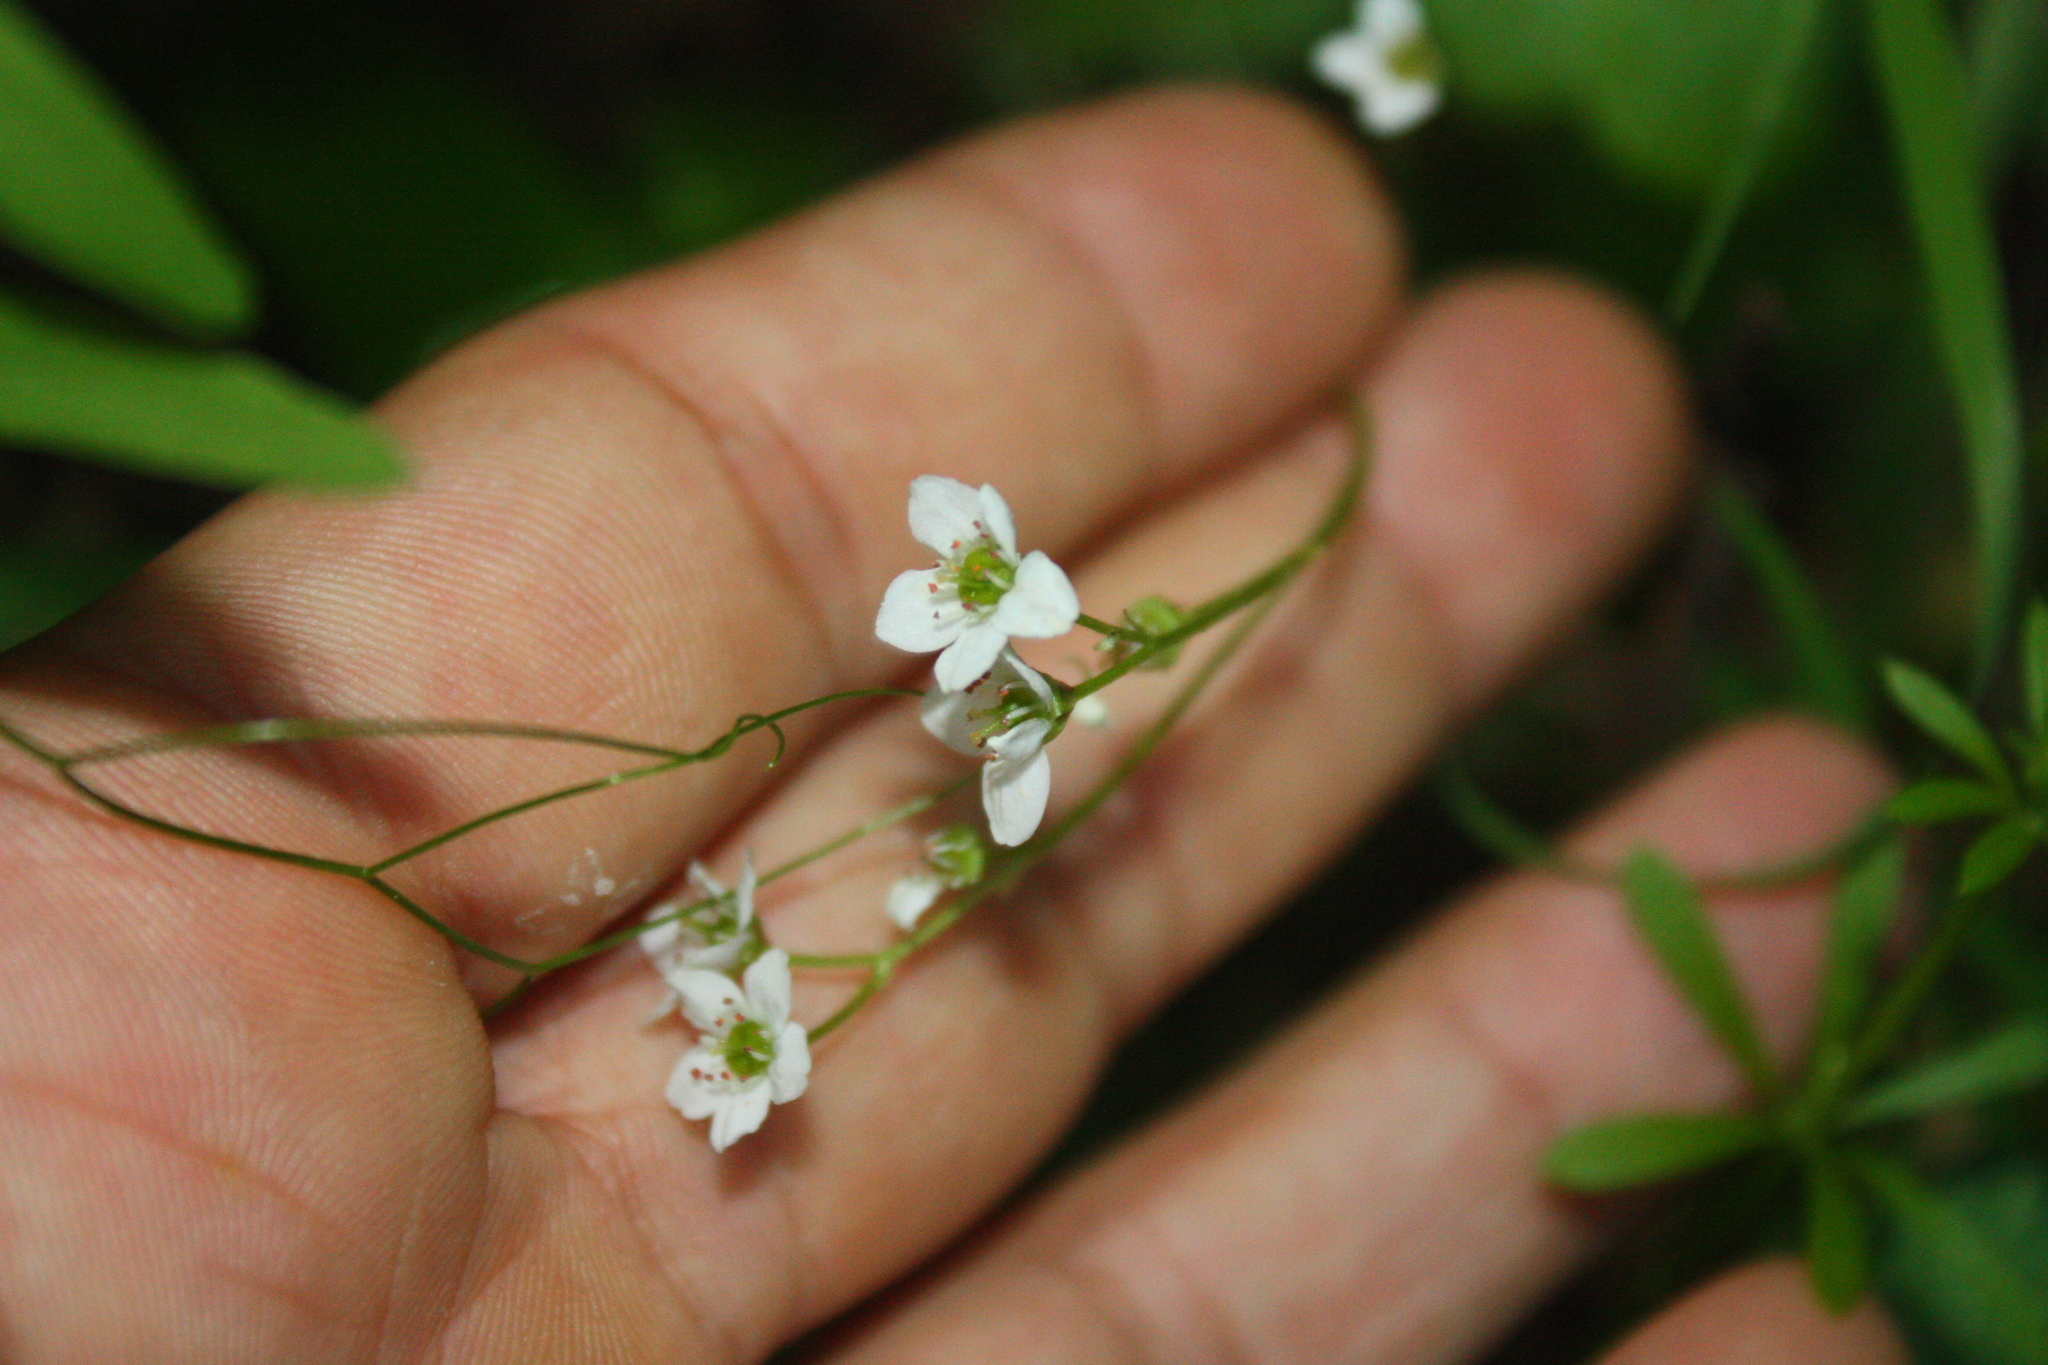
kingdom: Plantae
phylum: Tracheophyta
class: Magnoliopsida
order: Saxifragales
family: Saxifragaceae
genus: Micranthes
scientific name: Micranthes californica
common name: California saxifrage
